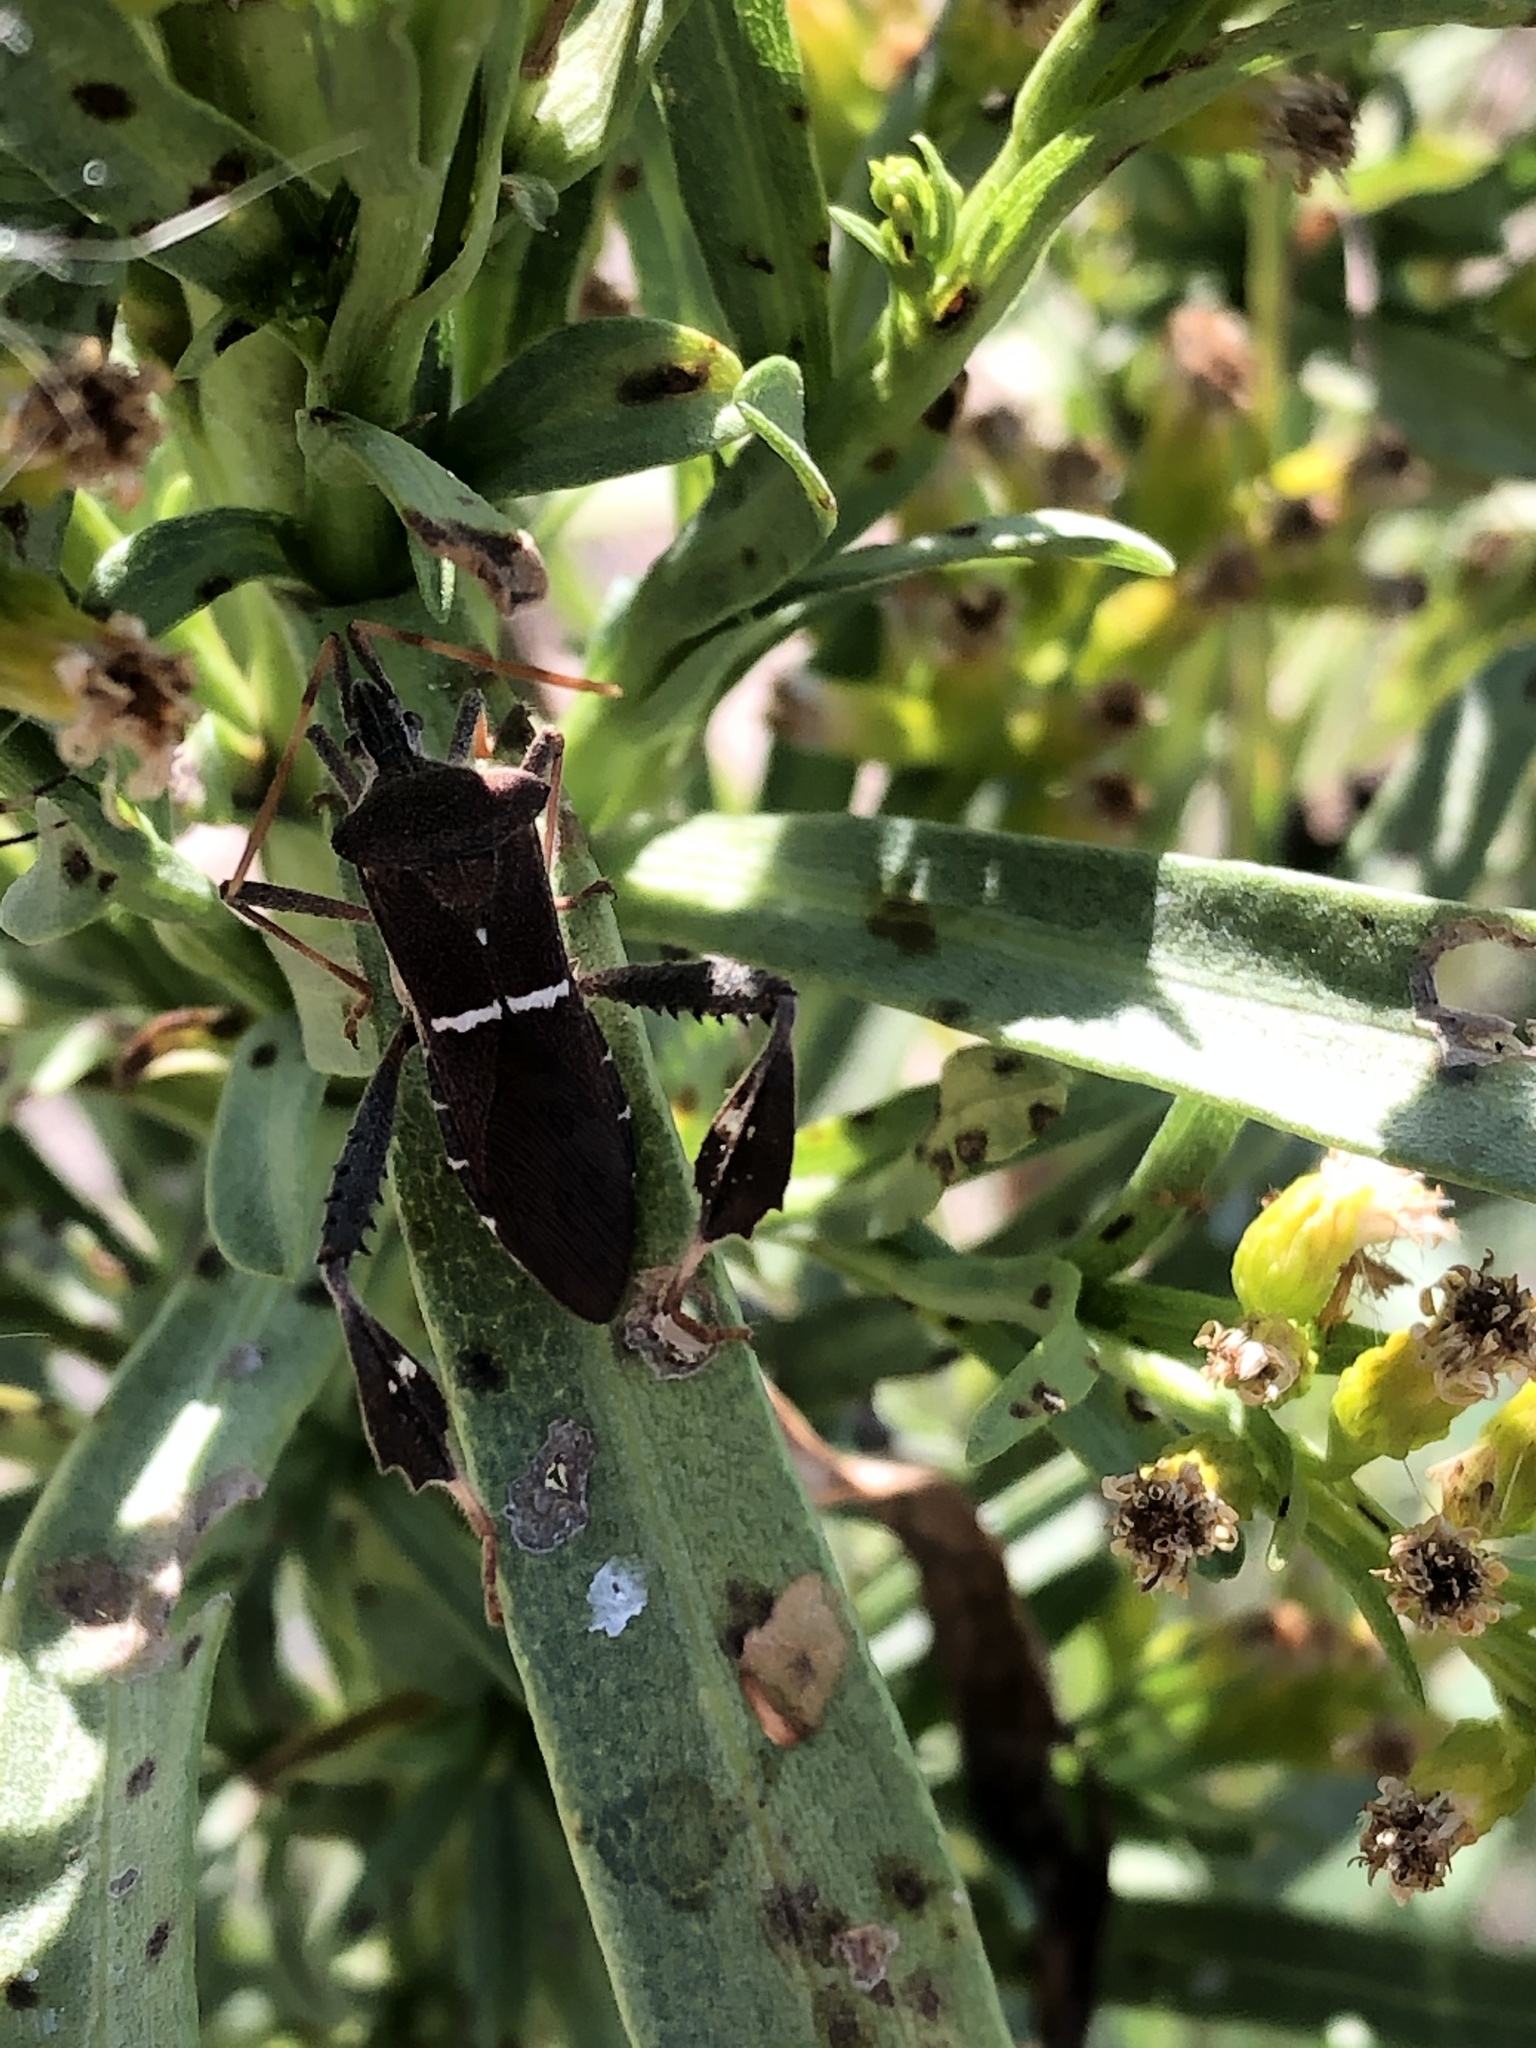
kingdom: Animalia
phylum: Arthropoda
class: Insecta
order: Hemiptera
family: Coreidae
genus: Leptoglossus
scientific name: Leptoglossus phyllopus
